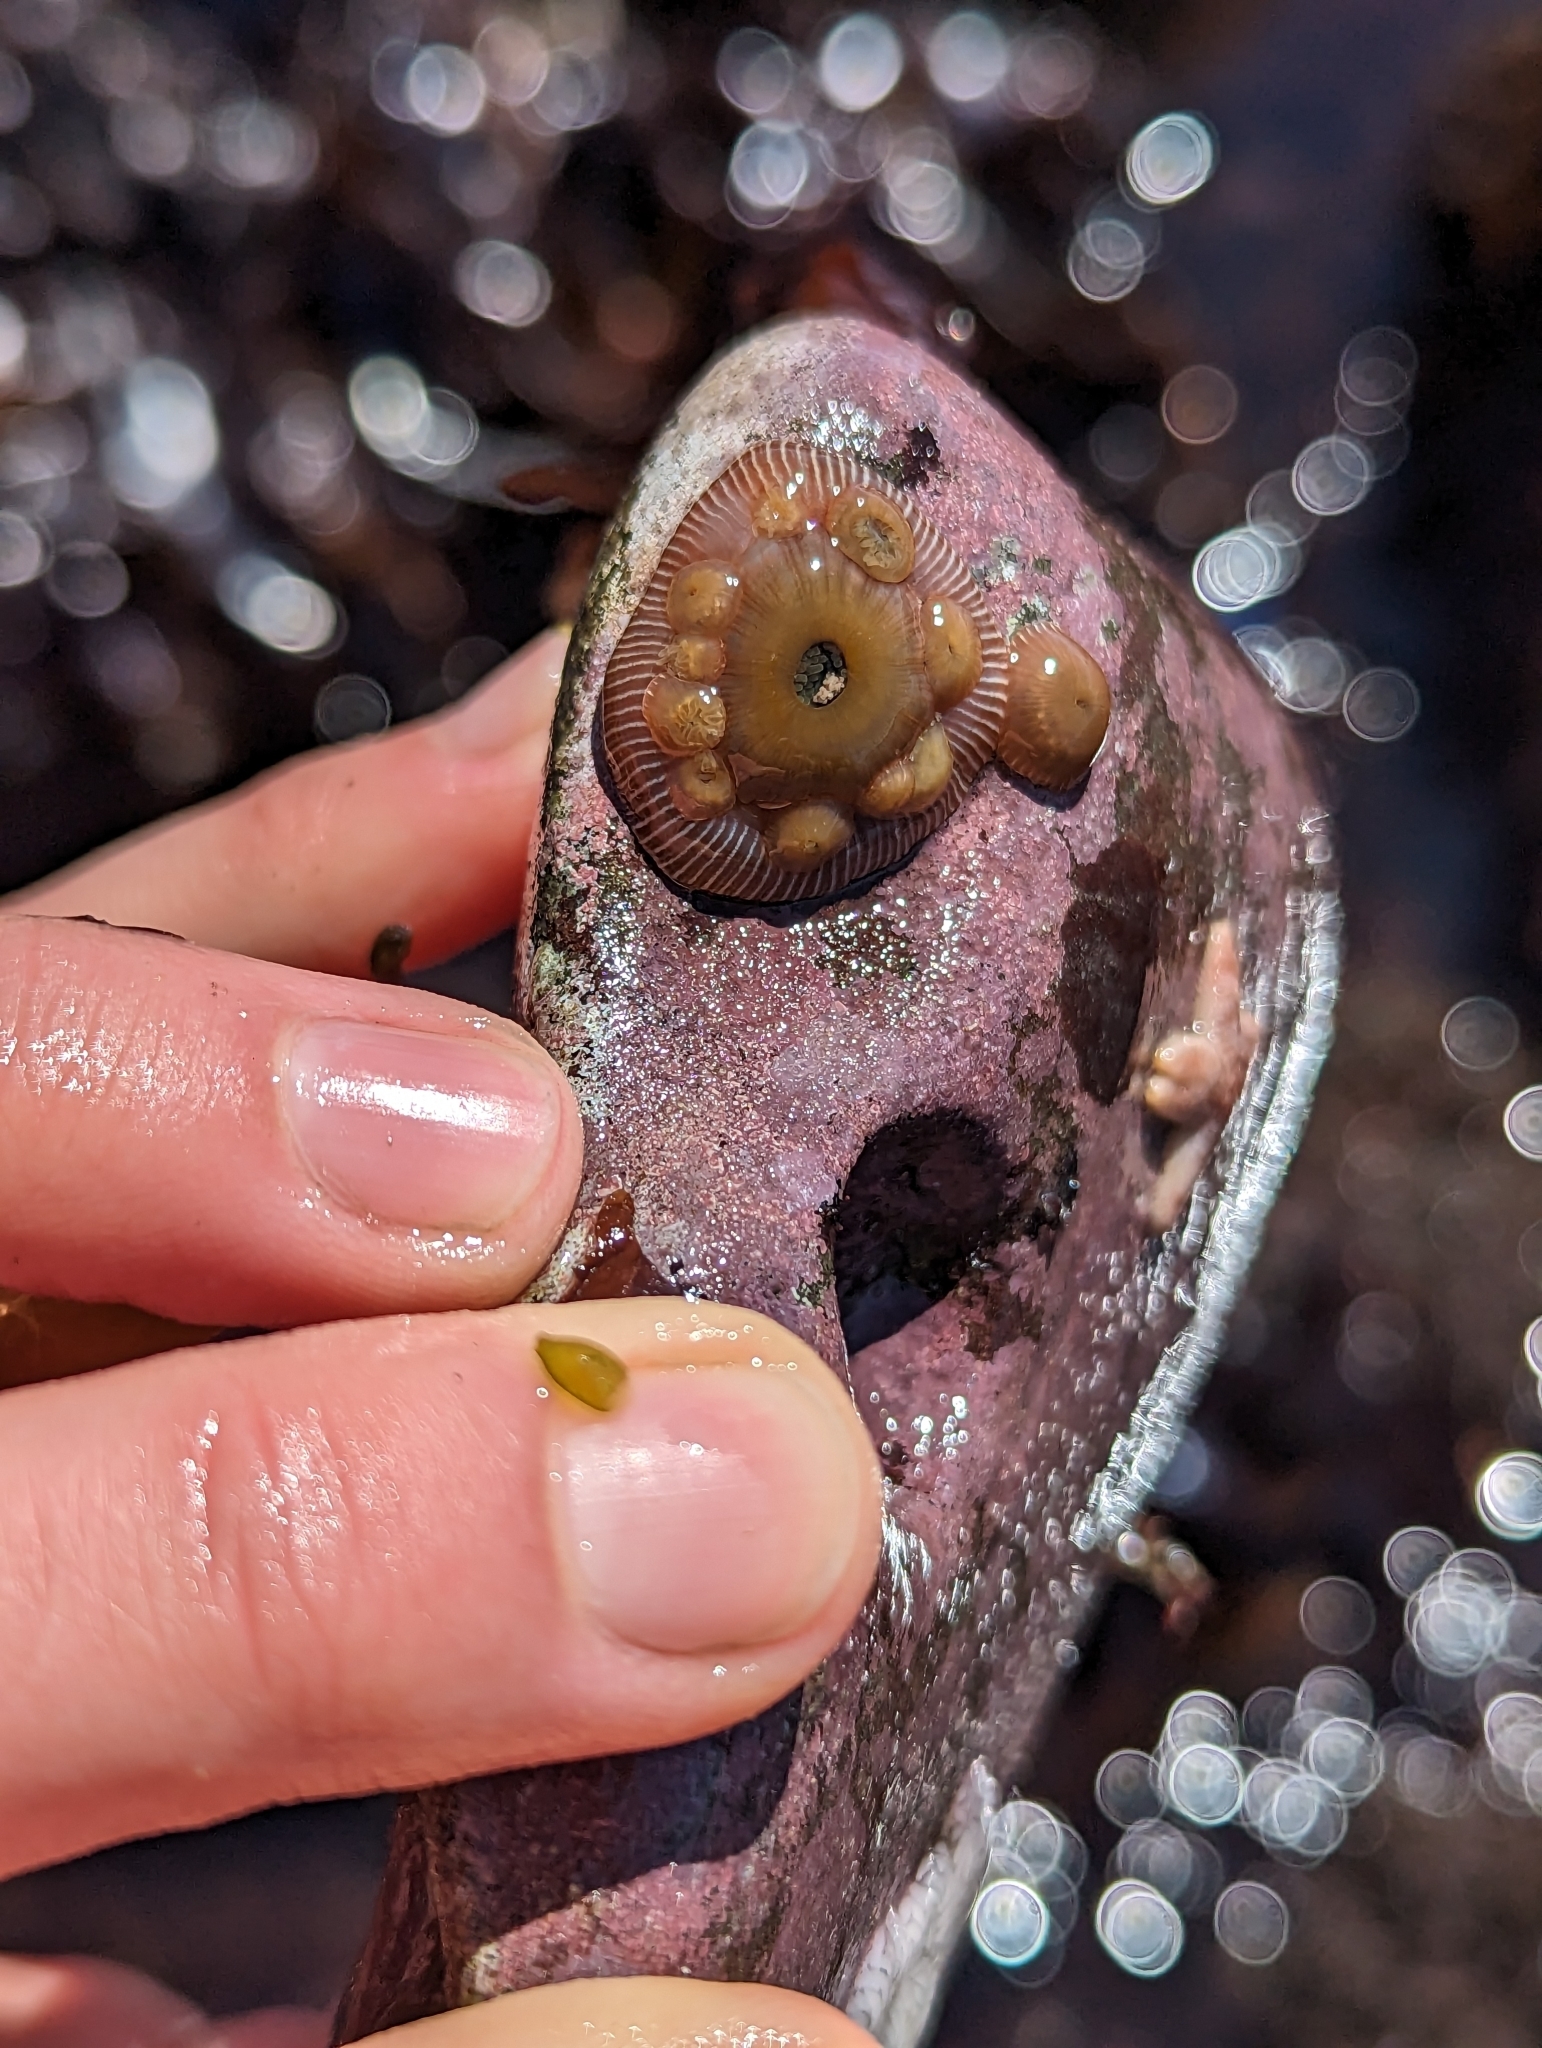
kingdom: Animalia
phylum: Cnidaria
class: Anthozoa
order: Actiniaria
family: Actiniidae
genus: Epiactis
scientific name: Epiactis prolifera
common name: Brooding anemone
